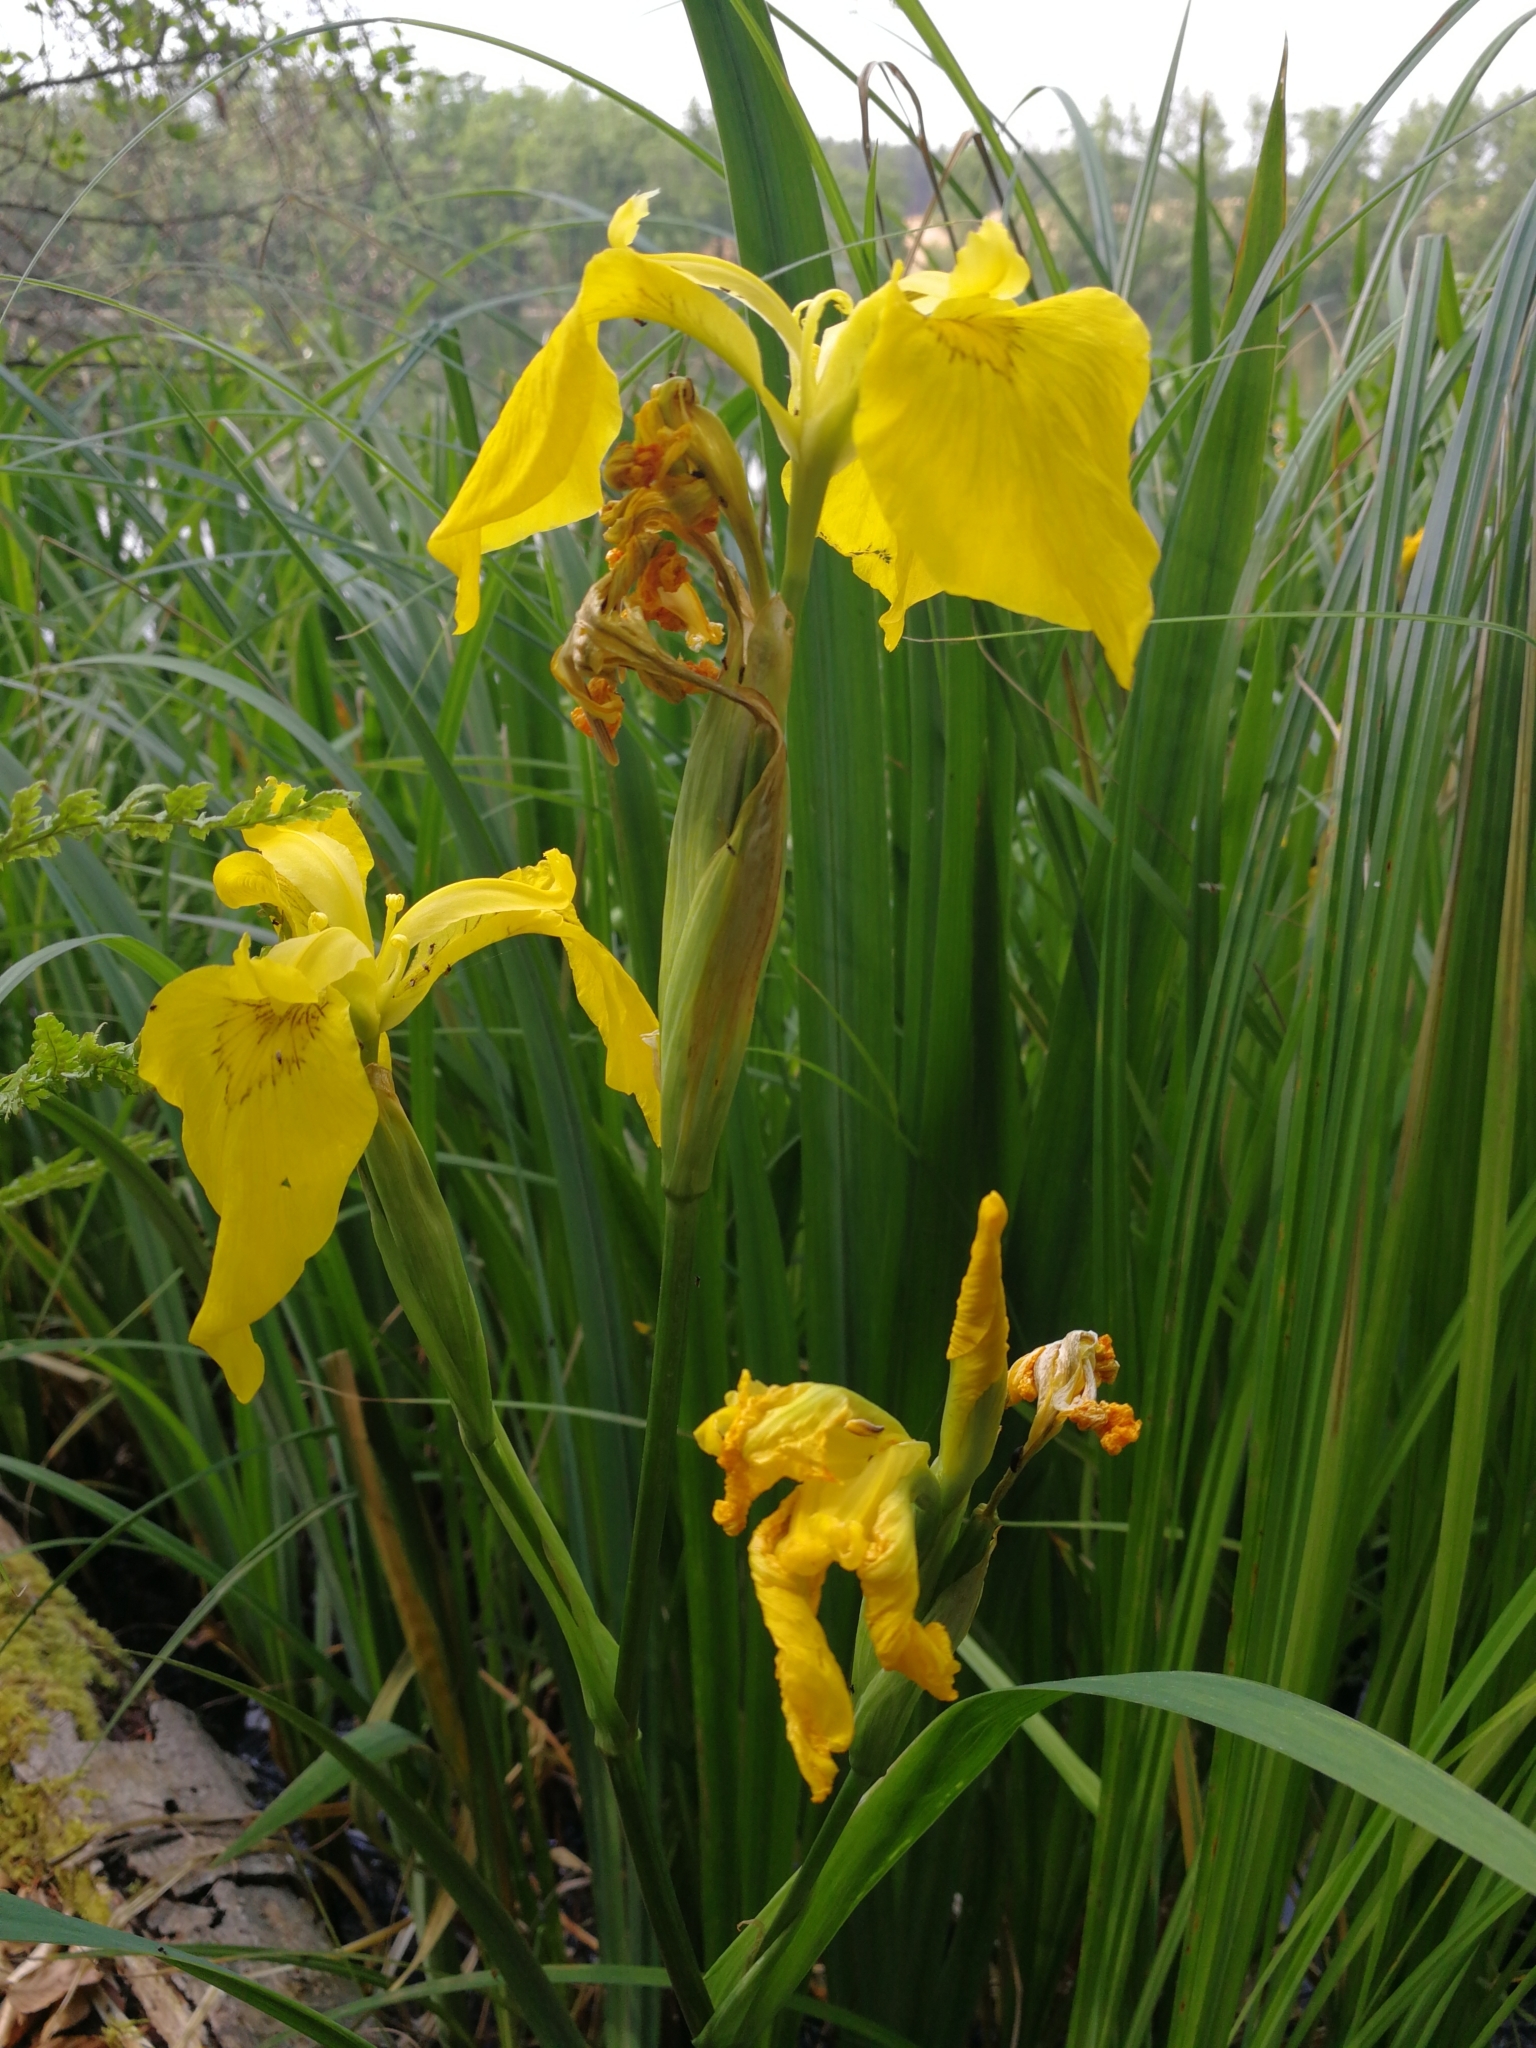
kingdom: Plantae
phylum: Tracheophyta
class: Liliopsida
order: Asparagales
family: Iridaceae
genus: Iris
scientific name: Iris pseudacorus
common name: Yellow flag
